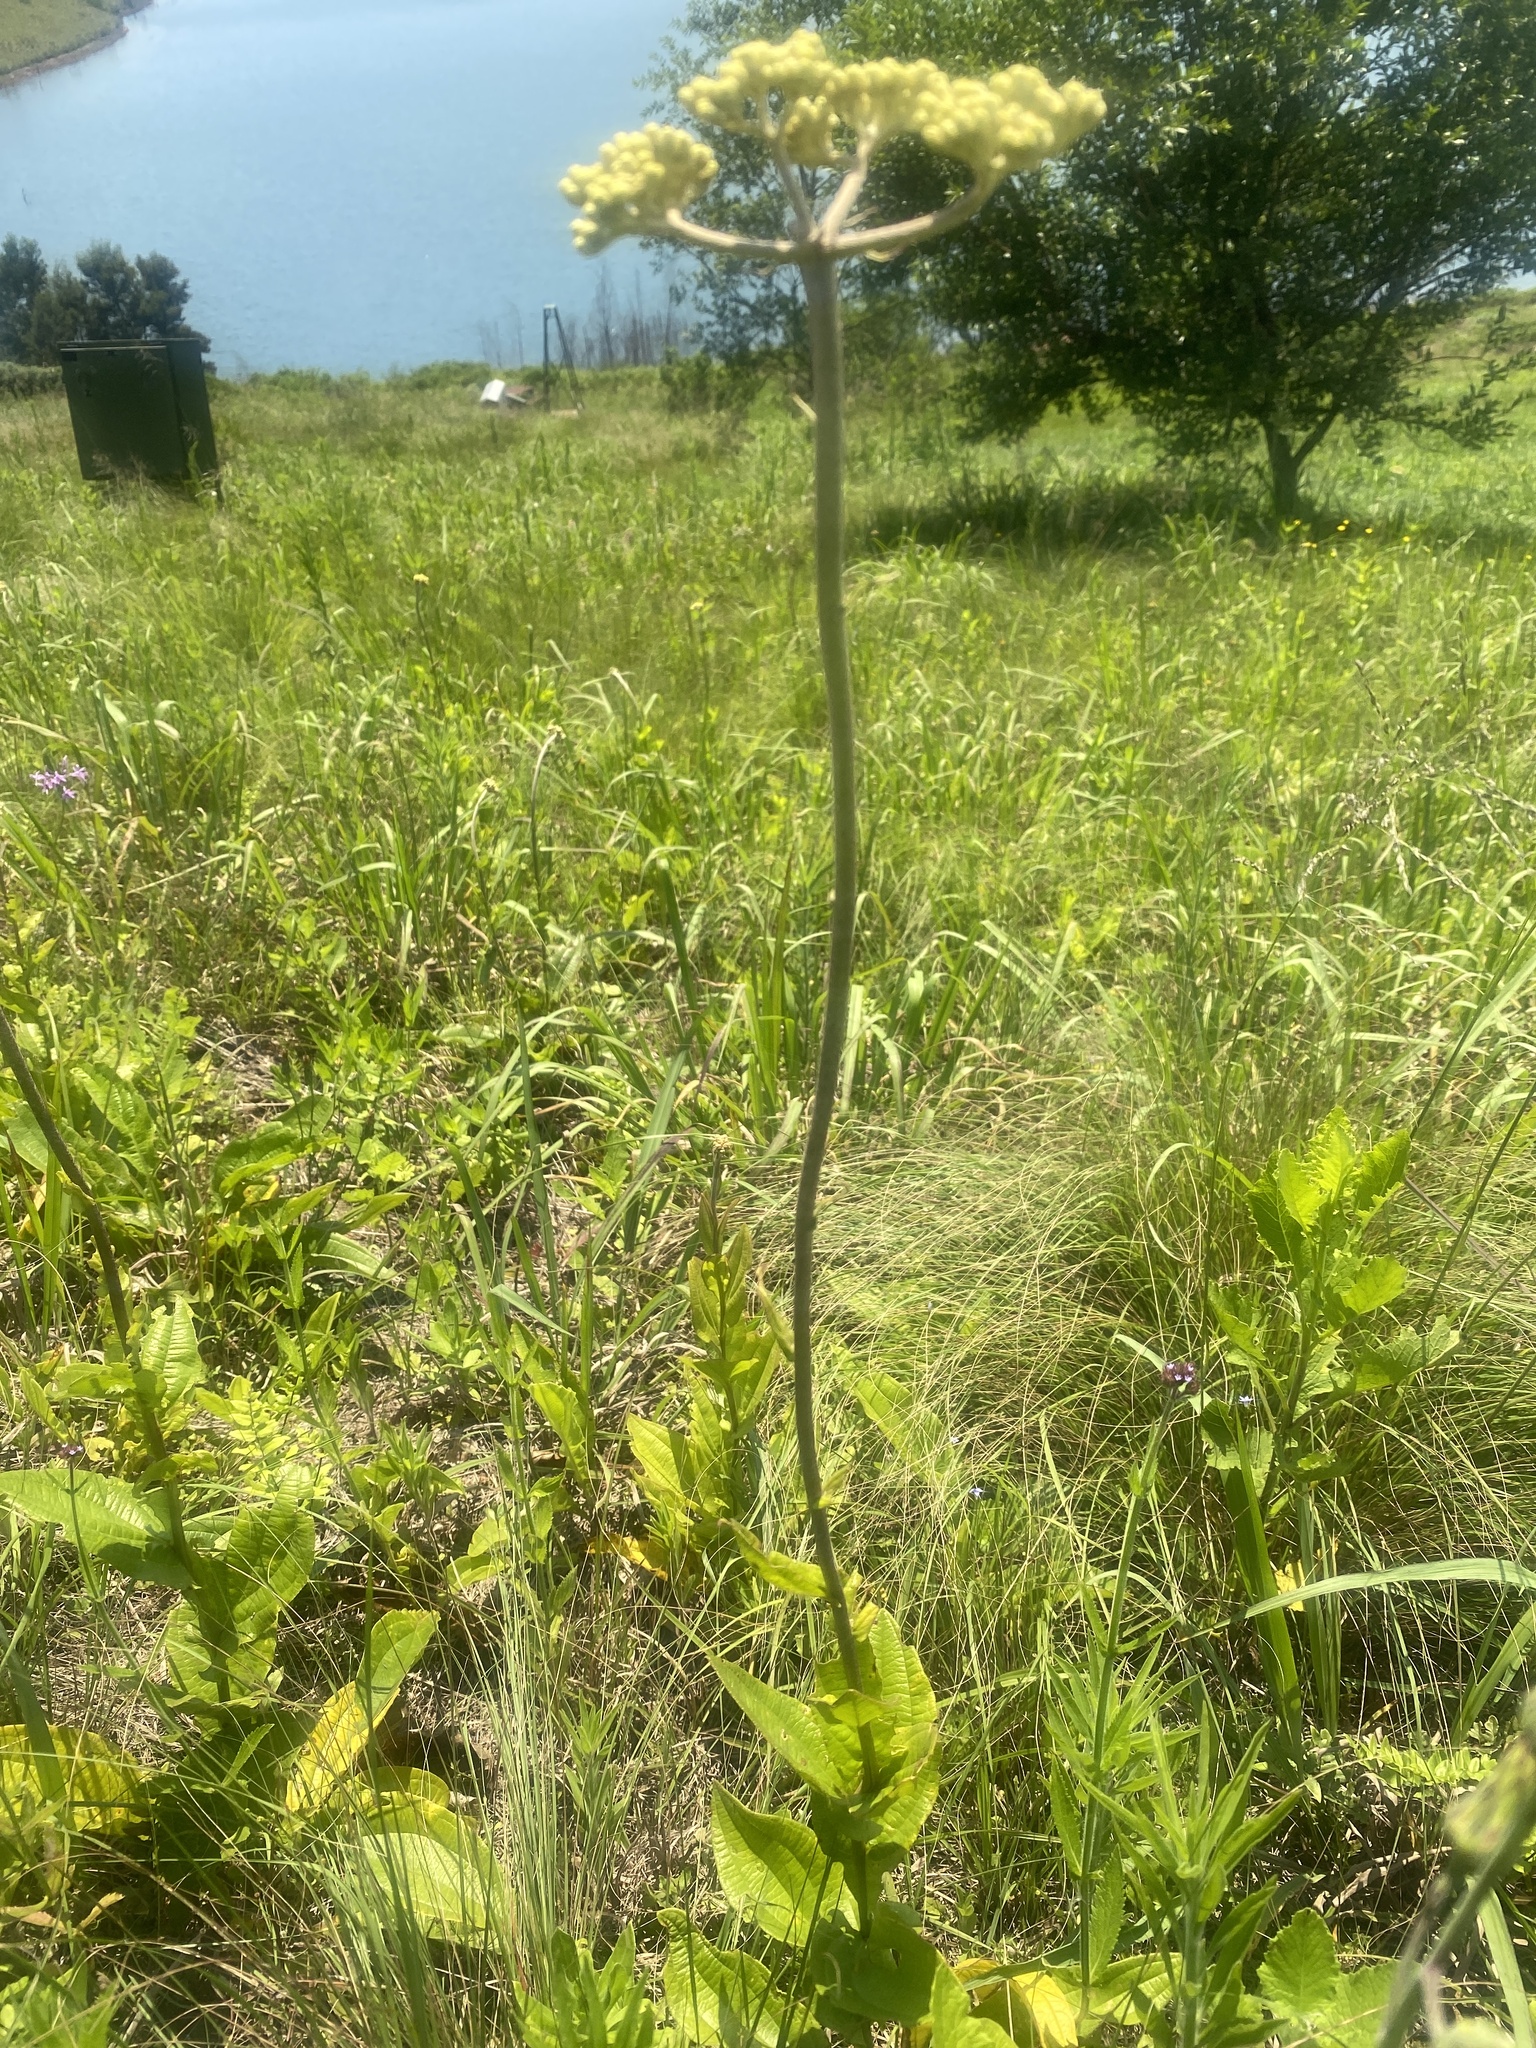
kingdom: Plantae
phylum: Tracheophyta
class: Magnoliopsida
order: Asterales
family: Asteraceae
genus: Helichrysum
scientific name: Helichrysum nudifolium
